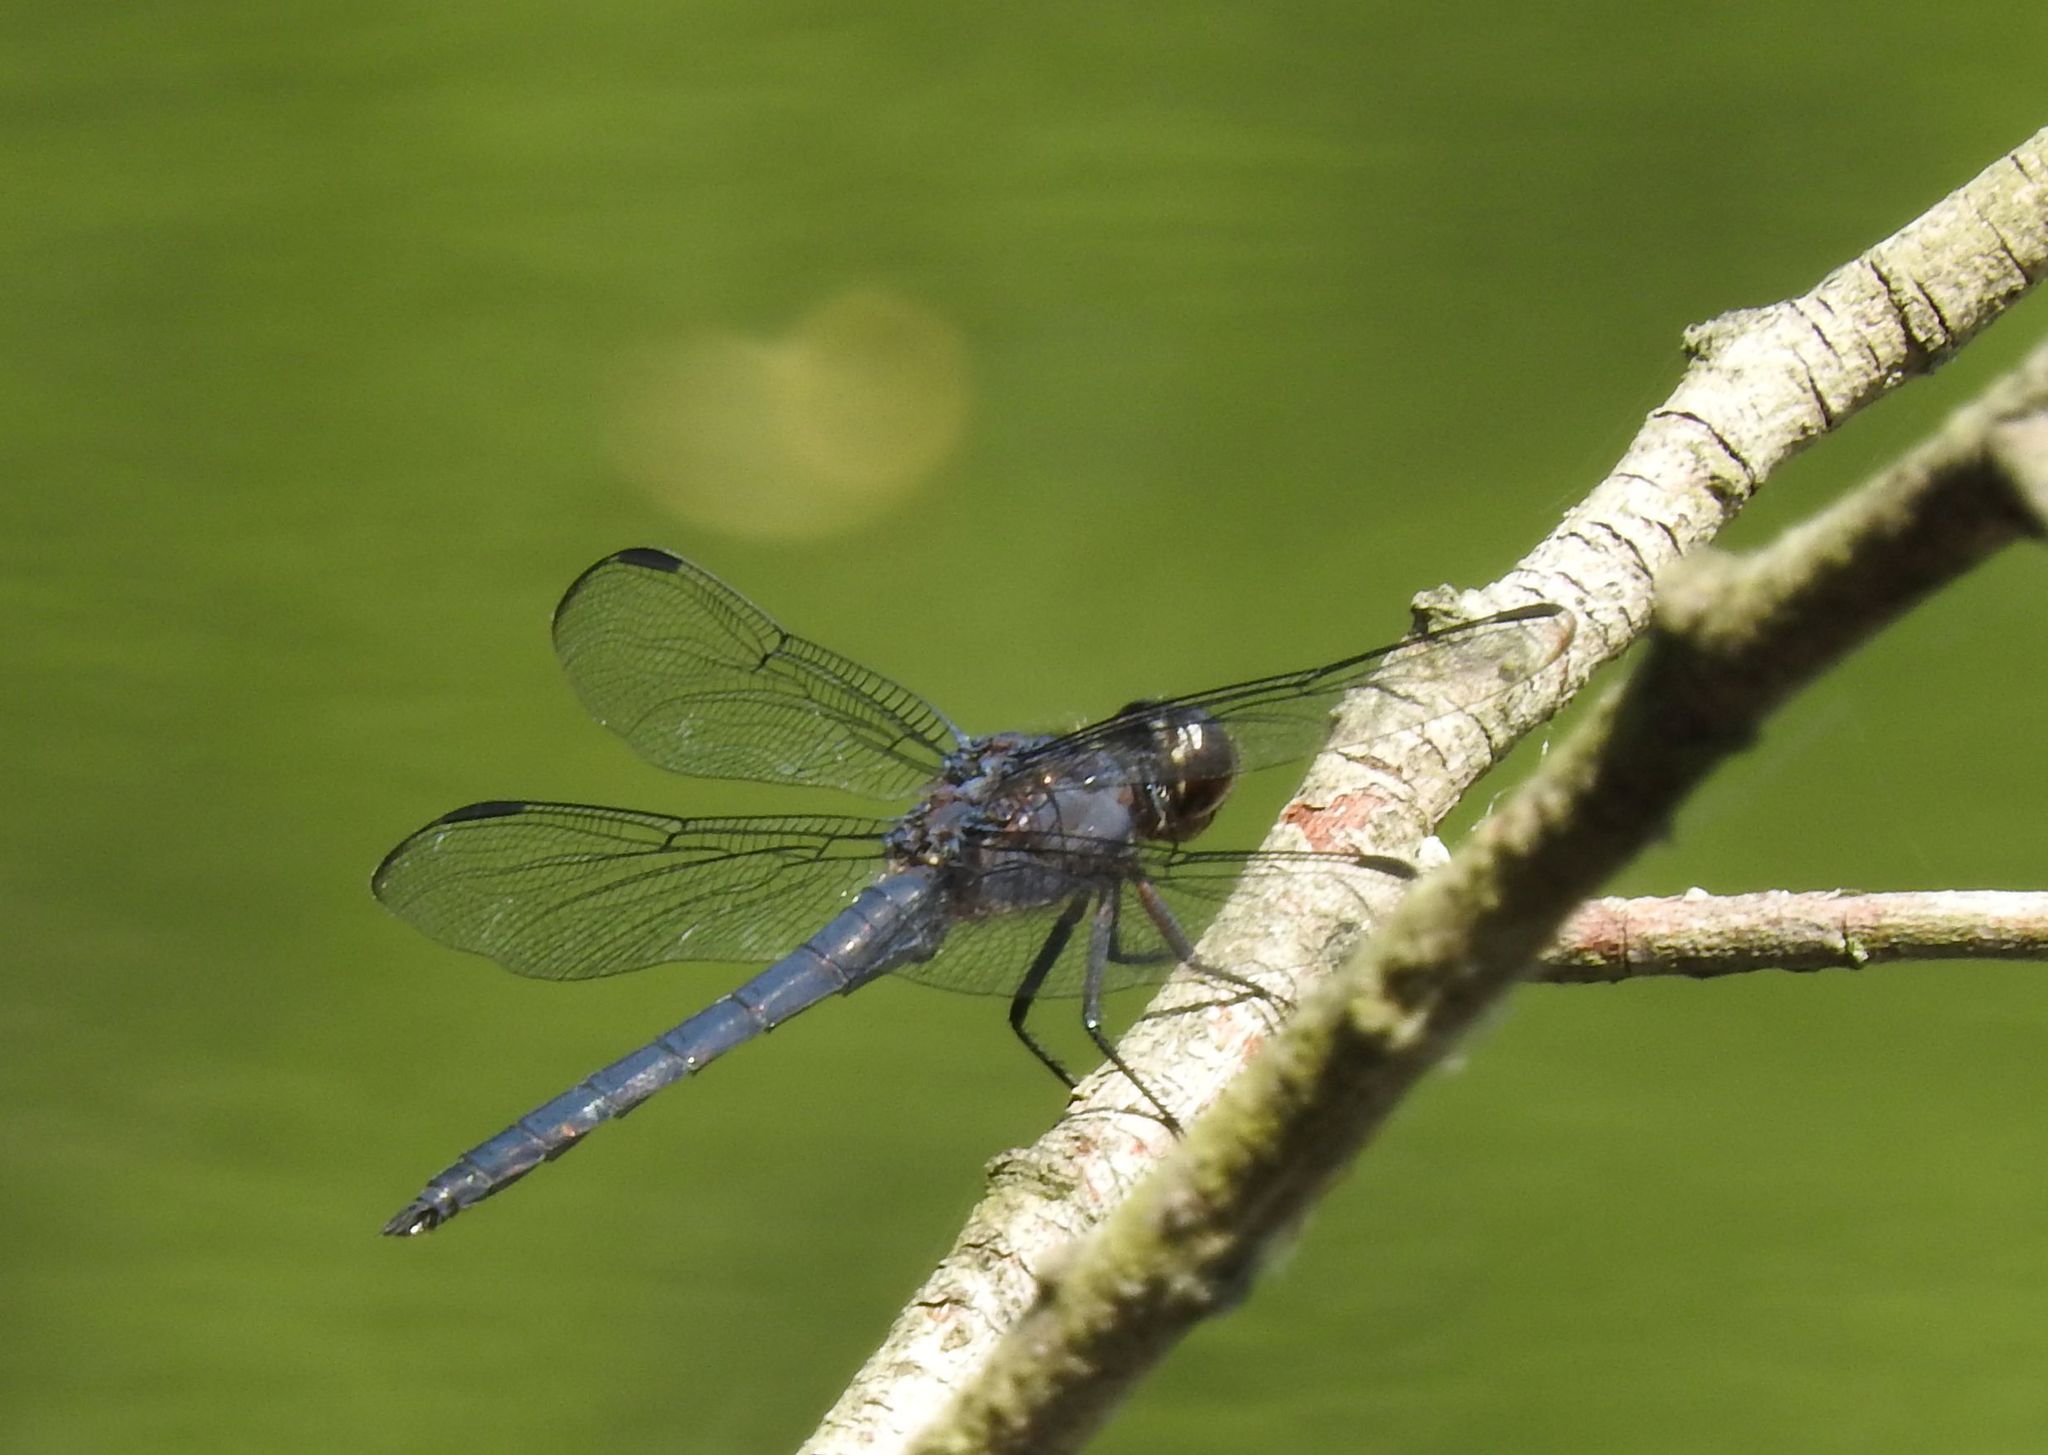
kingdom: Animalia
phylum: Arthropoda
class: Insecta
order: Odonata
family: Libellulidae
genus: Libellula
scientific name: Libellula incesta
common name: Slaty skimmer
